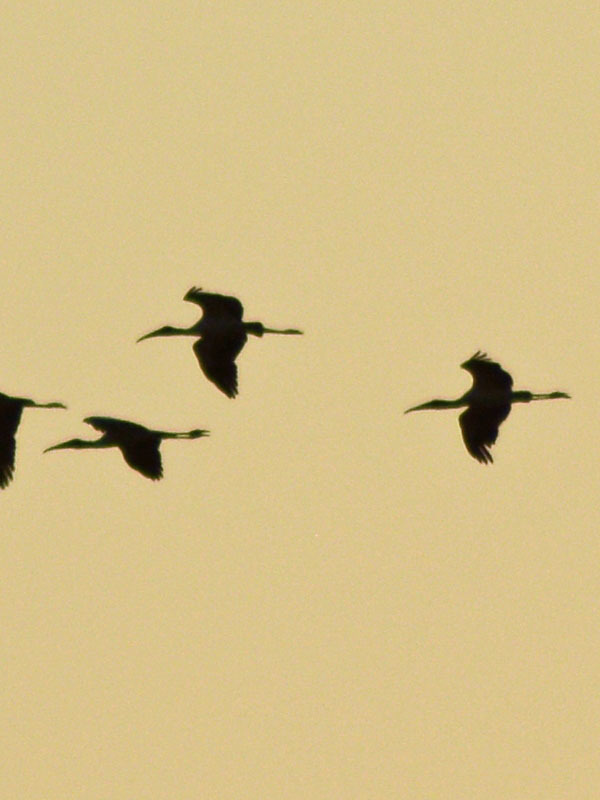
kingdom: Animalia
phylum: Chordata
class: Aves
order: Pelecaniformes
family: Threskiornithidae
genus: Plegadis
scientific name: Plegadis chihi
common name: White-faced ibis
